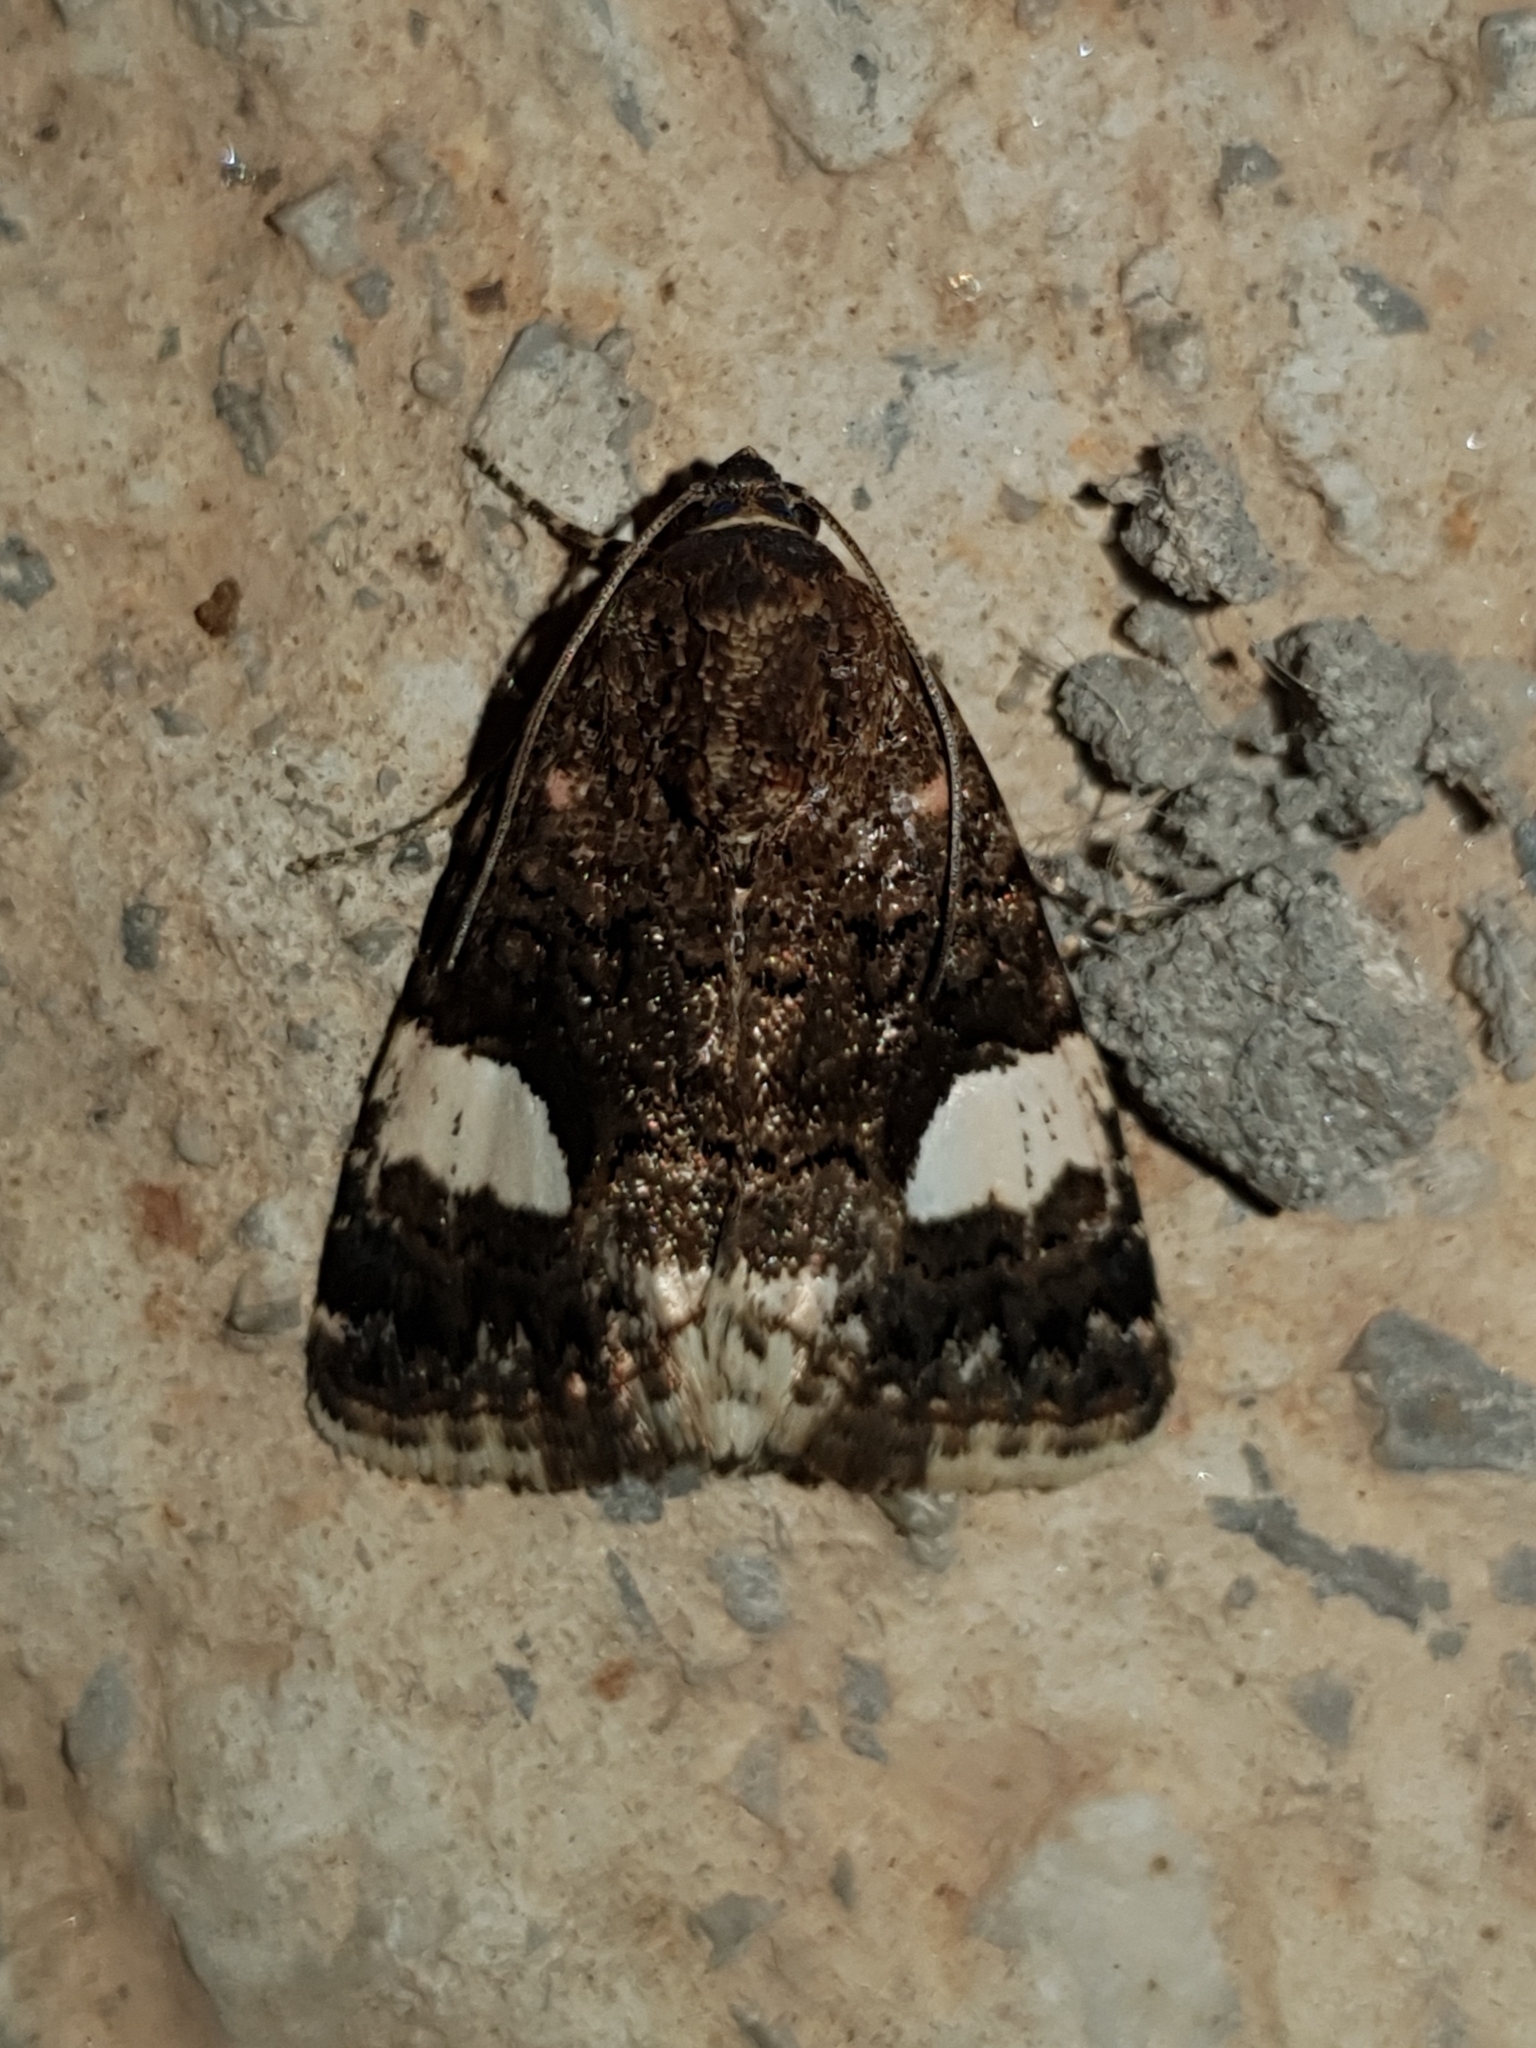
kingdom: Animalia
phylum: Arthropoda
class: Insecta
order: Lepidoptera
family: Erebidae
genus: Tyta
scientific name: Tyta luctuosa
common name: Four-spotted
